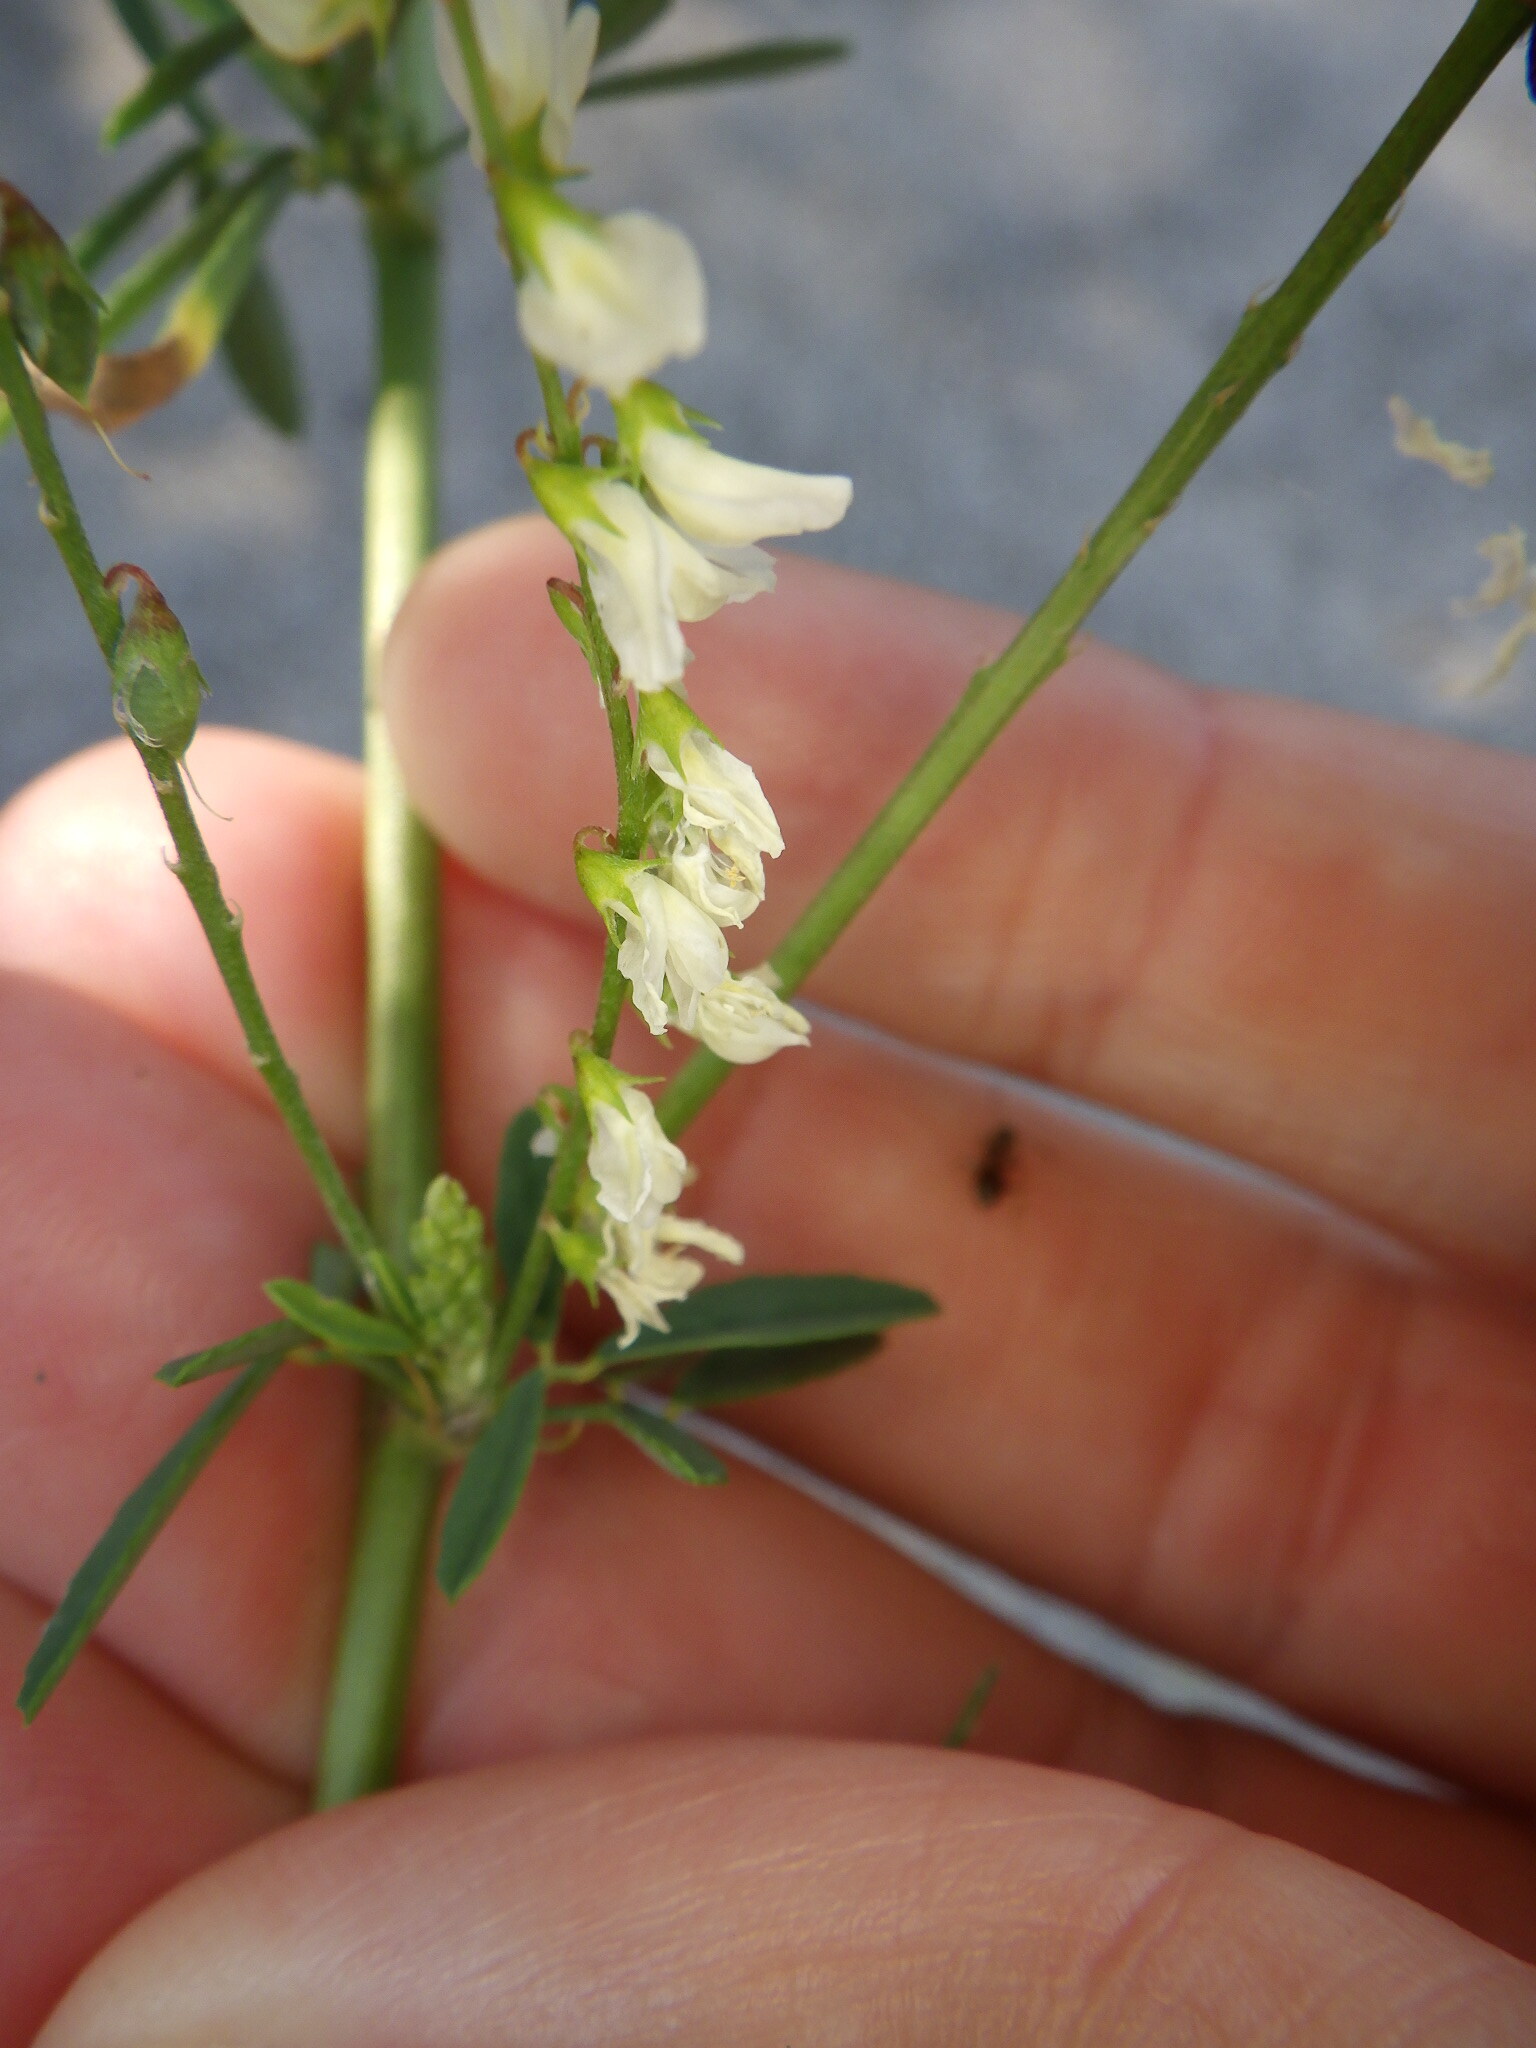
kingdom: Plantae
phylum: Tracheophyta
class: Magnoliopsida
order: Fabales
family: Fabaceae
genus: Melilotus
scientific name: Melilotus albus
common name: White melilot
